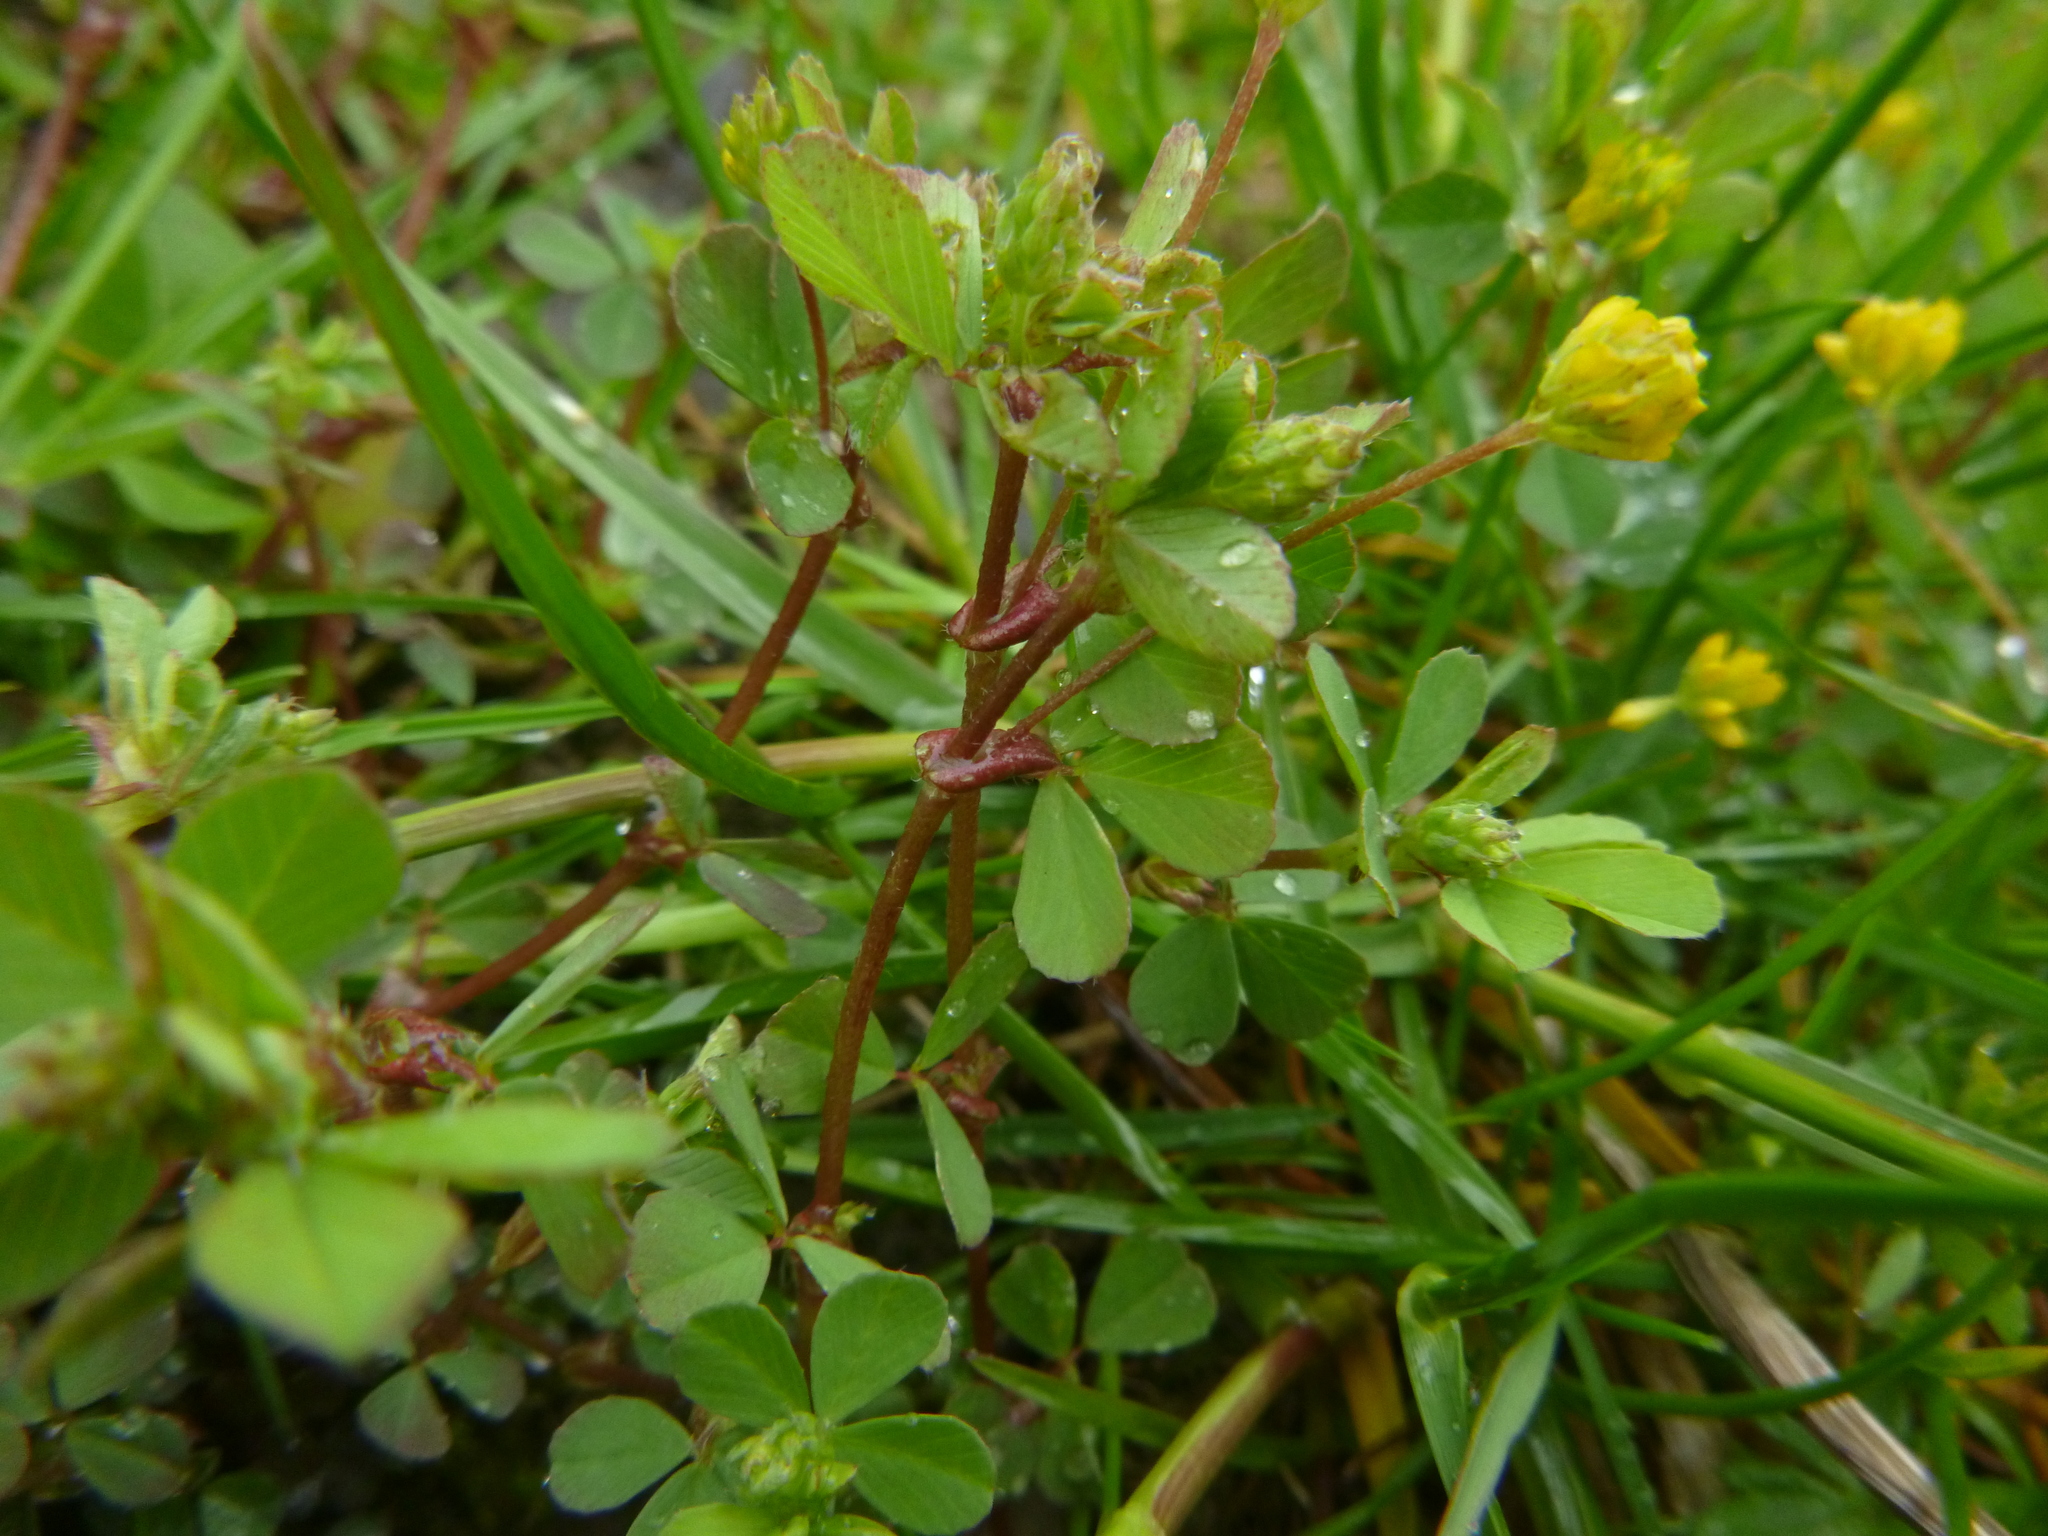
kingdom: Plantae
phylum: Tracheophyta
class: Magnoliopsida
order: Fabales
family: Fabaceae
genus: Trifolium
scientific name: Trifolium dubium
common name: Suckling clover
